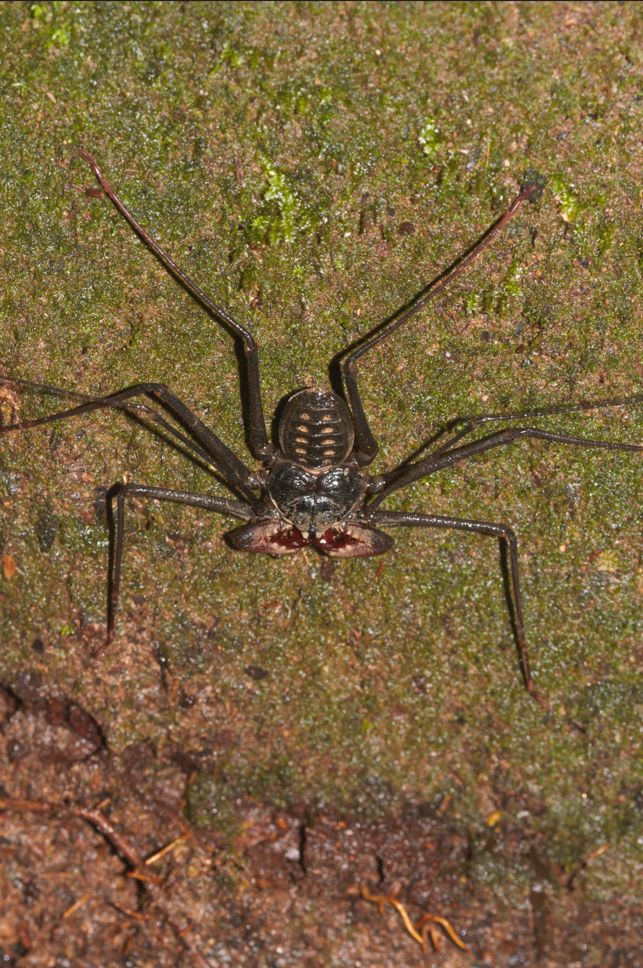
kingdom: Animalia
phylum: Arthropoda
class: Arachnida
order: Amblypygi
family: Phrynidae
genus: Heterophrynus
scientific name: Heterophrynus alces
